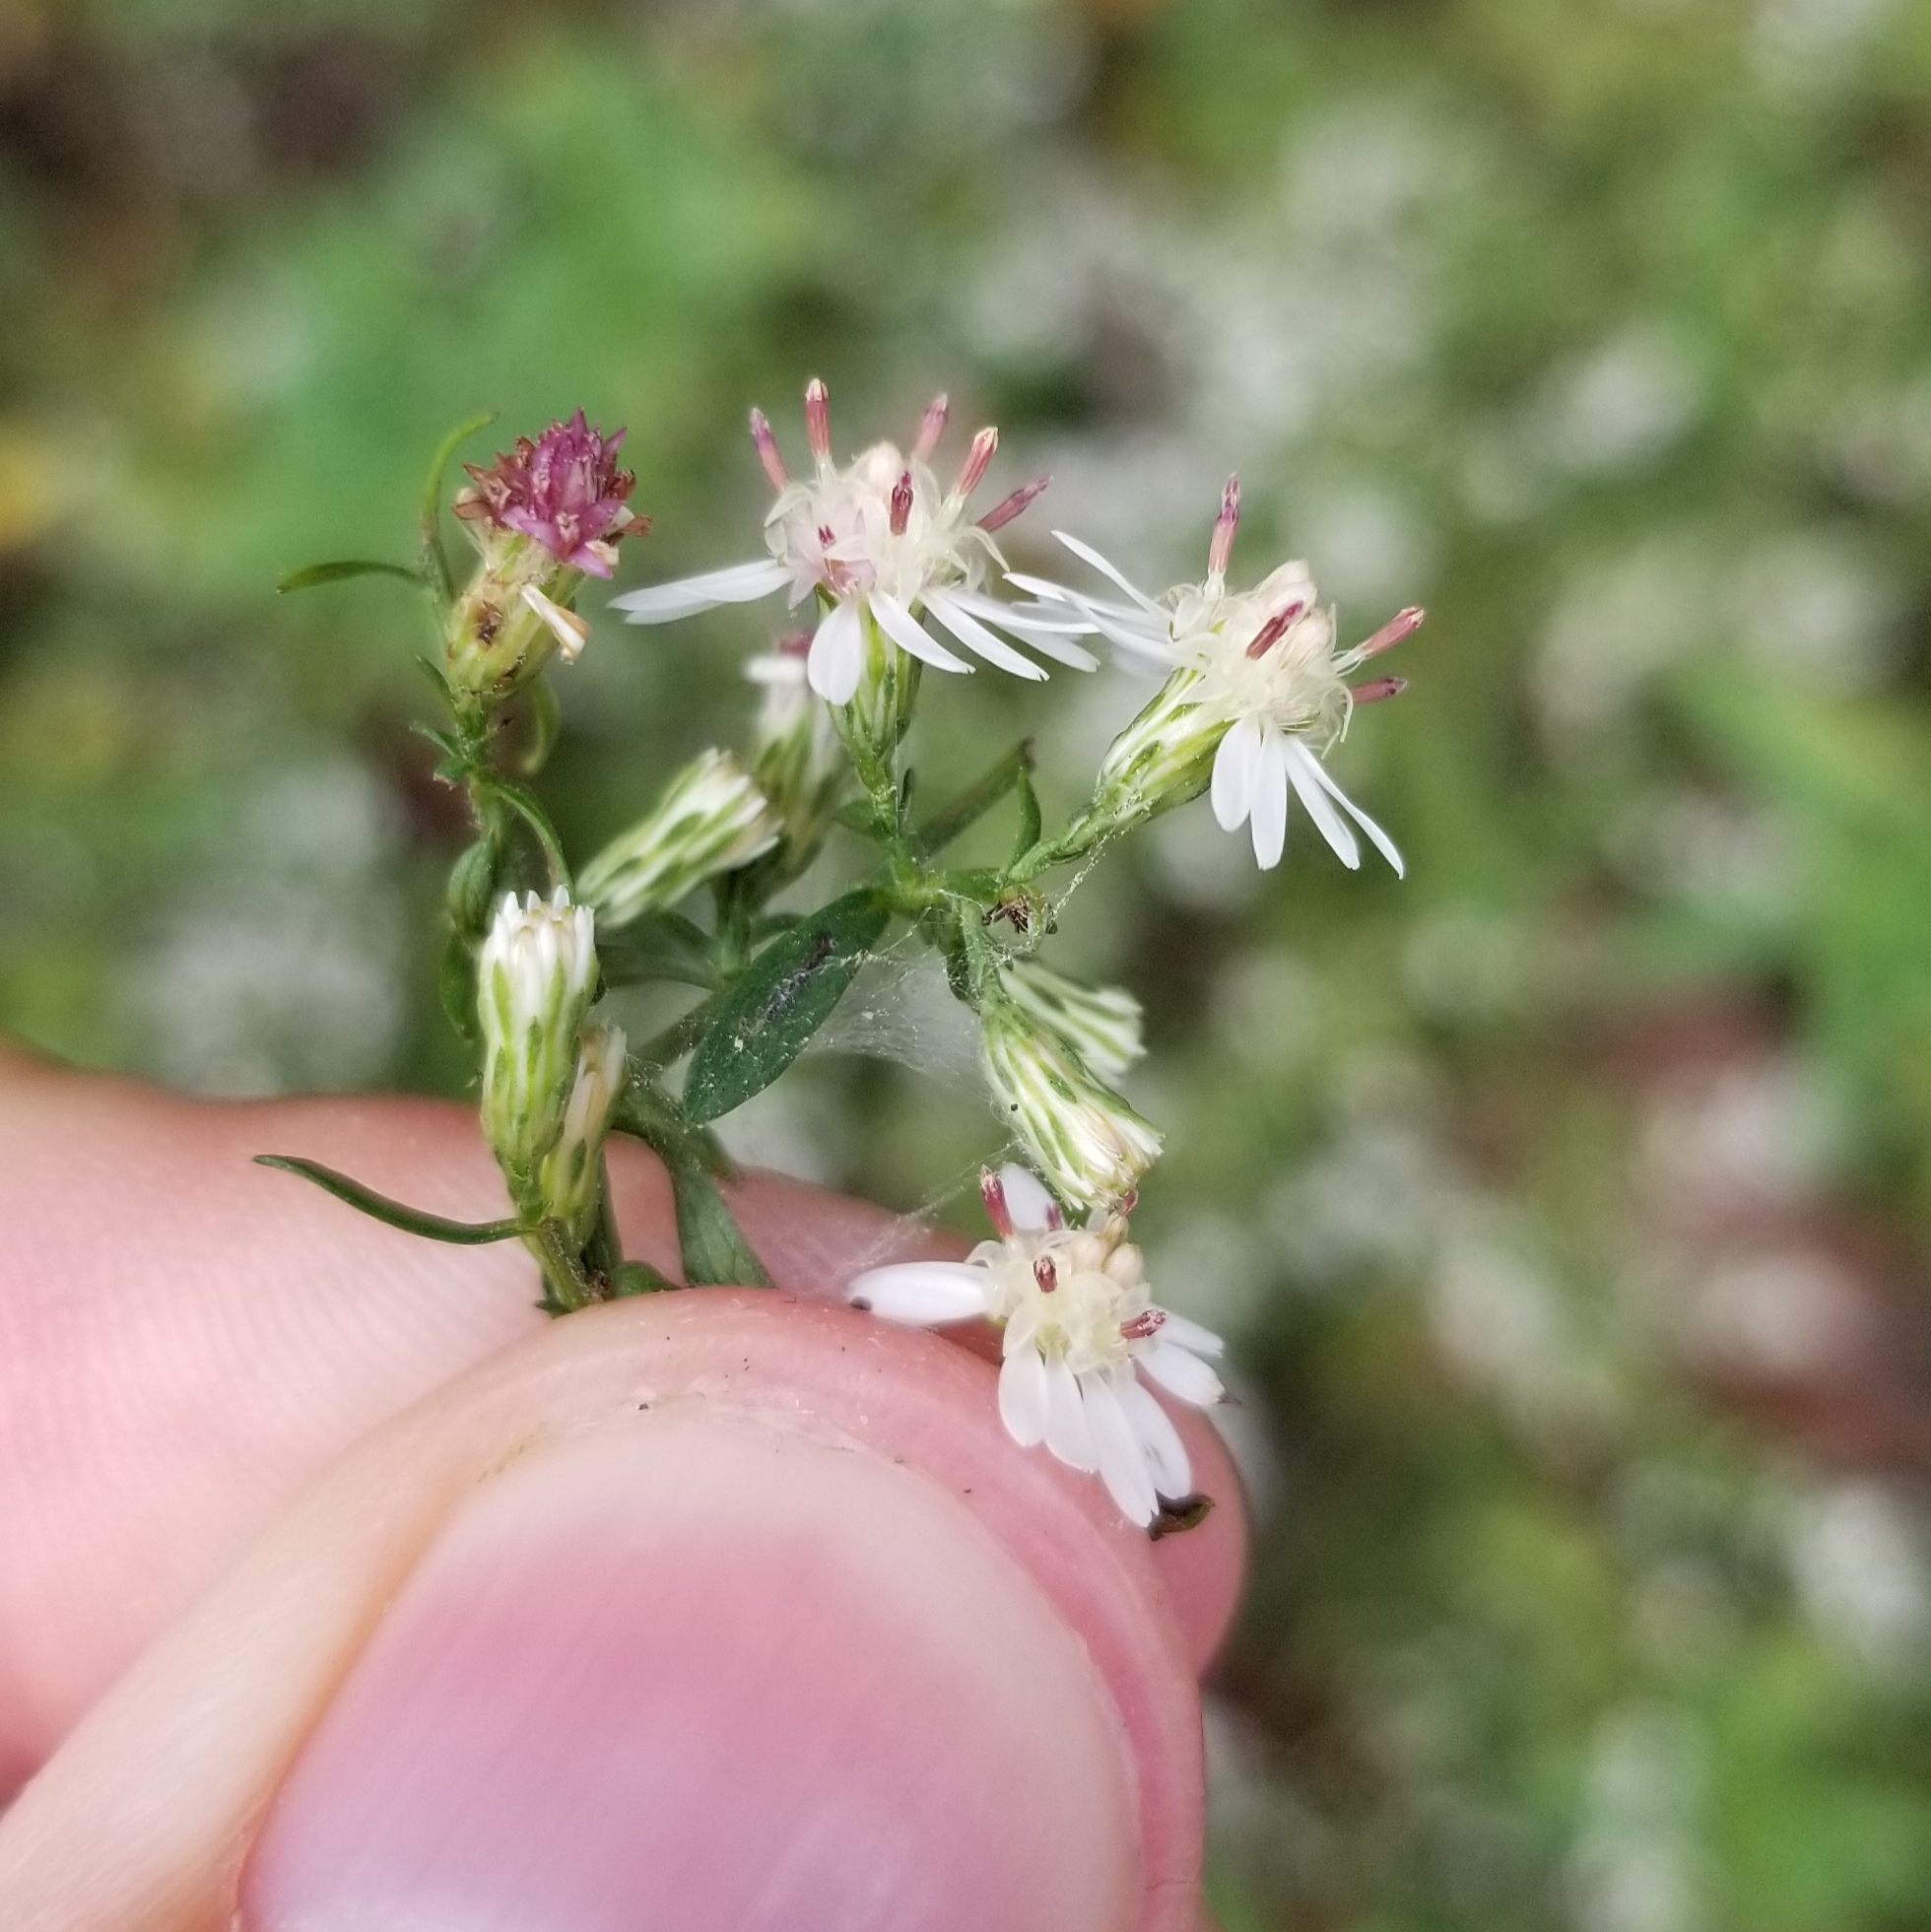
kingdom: Plantae
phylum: Tracheophyta
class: Magnoliopsida
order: Asterales
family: Asteraceae
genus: Symphyotrichum
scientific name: Symphyotrichum lateriflorum
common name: Calico aster
